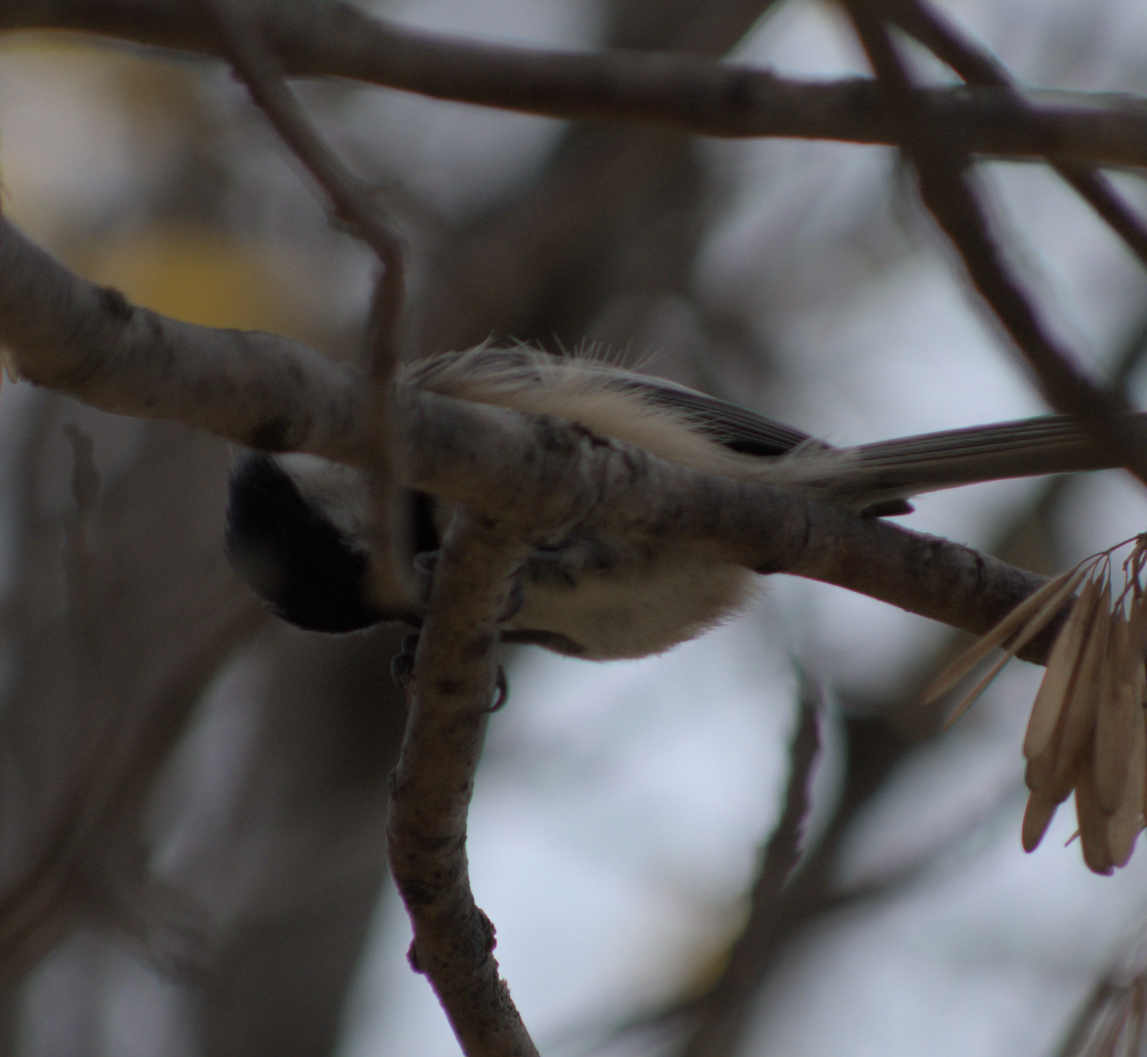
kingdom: Animalia
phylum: Chordata
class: Aves
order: Passeriformes
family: Paridae
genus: Poecile
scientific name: Poecile atricapillus
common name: Black-capped chickadee
